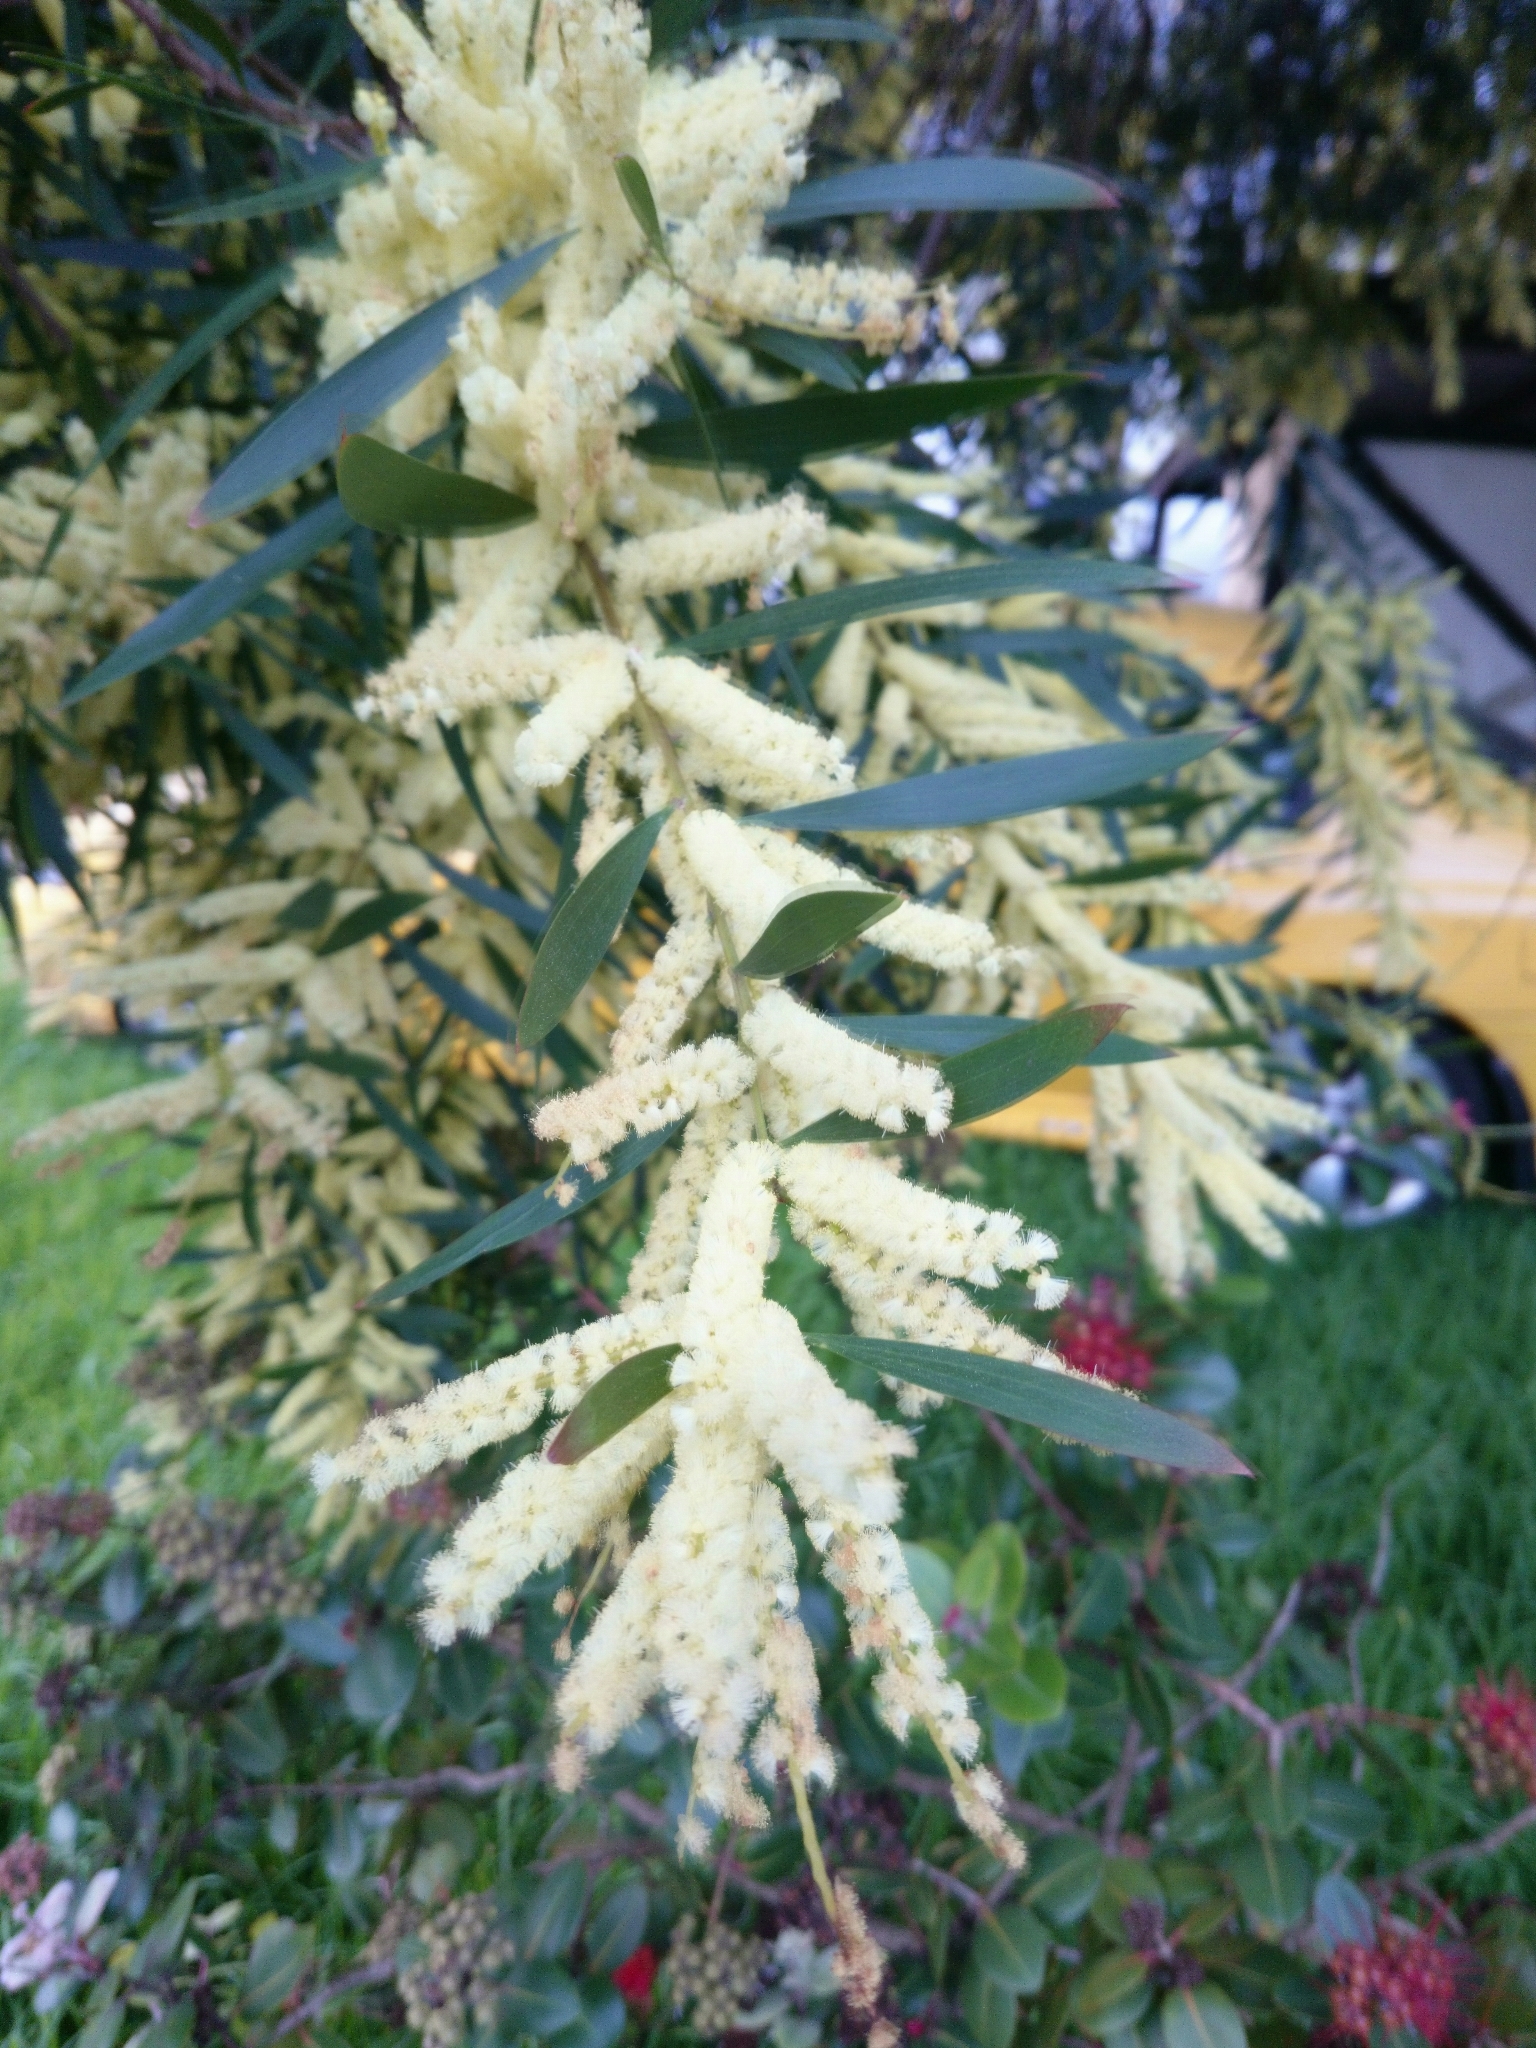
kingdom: Plantae
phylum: Tracheophyta
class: Magnoliopsida
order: Fabales
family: Fabaceae
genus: Acacia
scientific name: Acacia longifolia
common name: Sydney golden wattle
